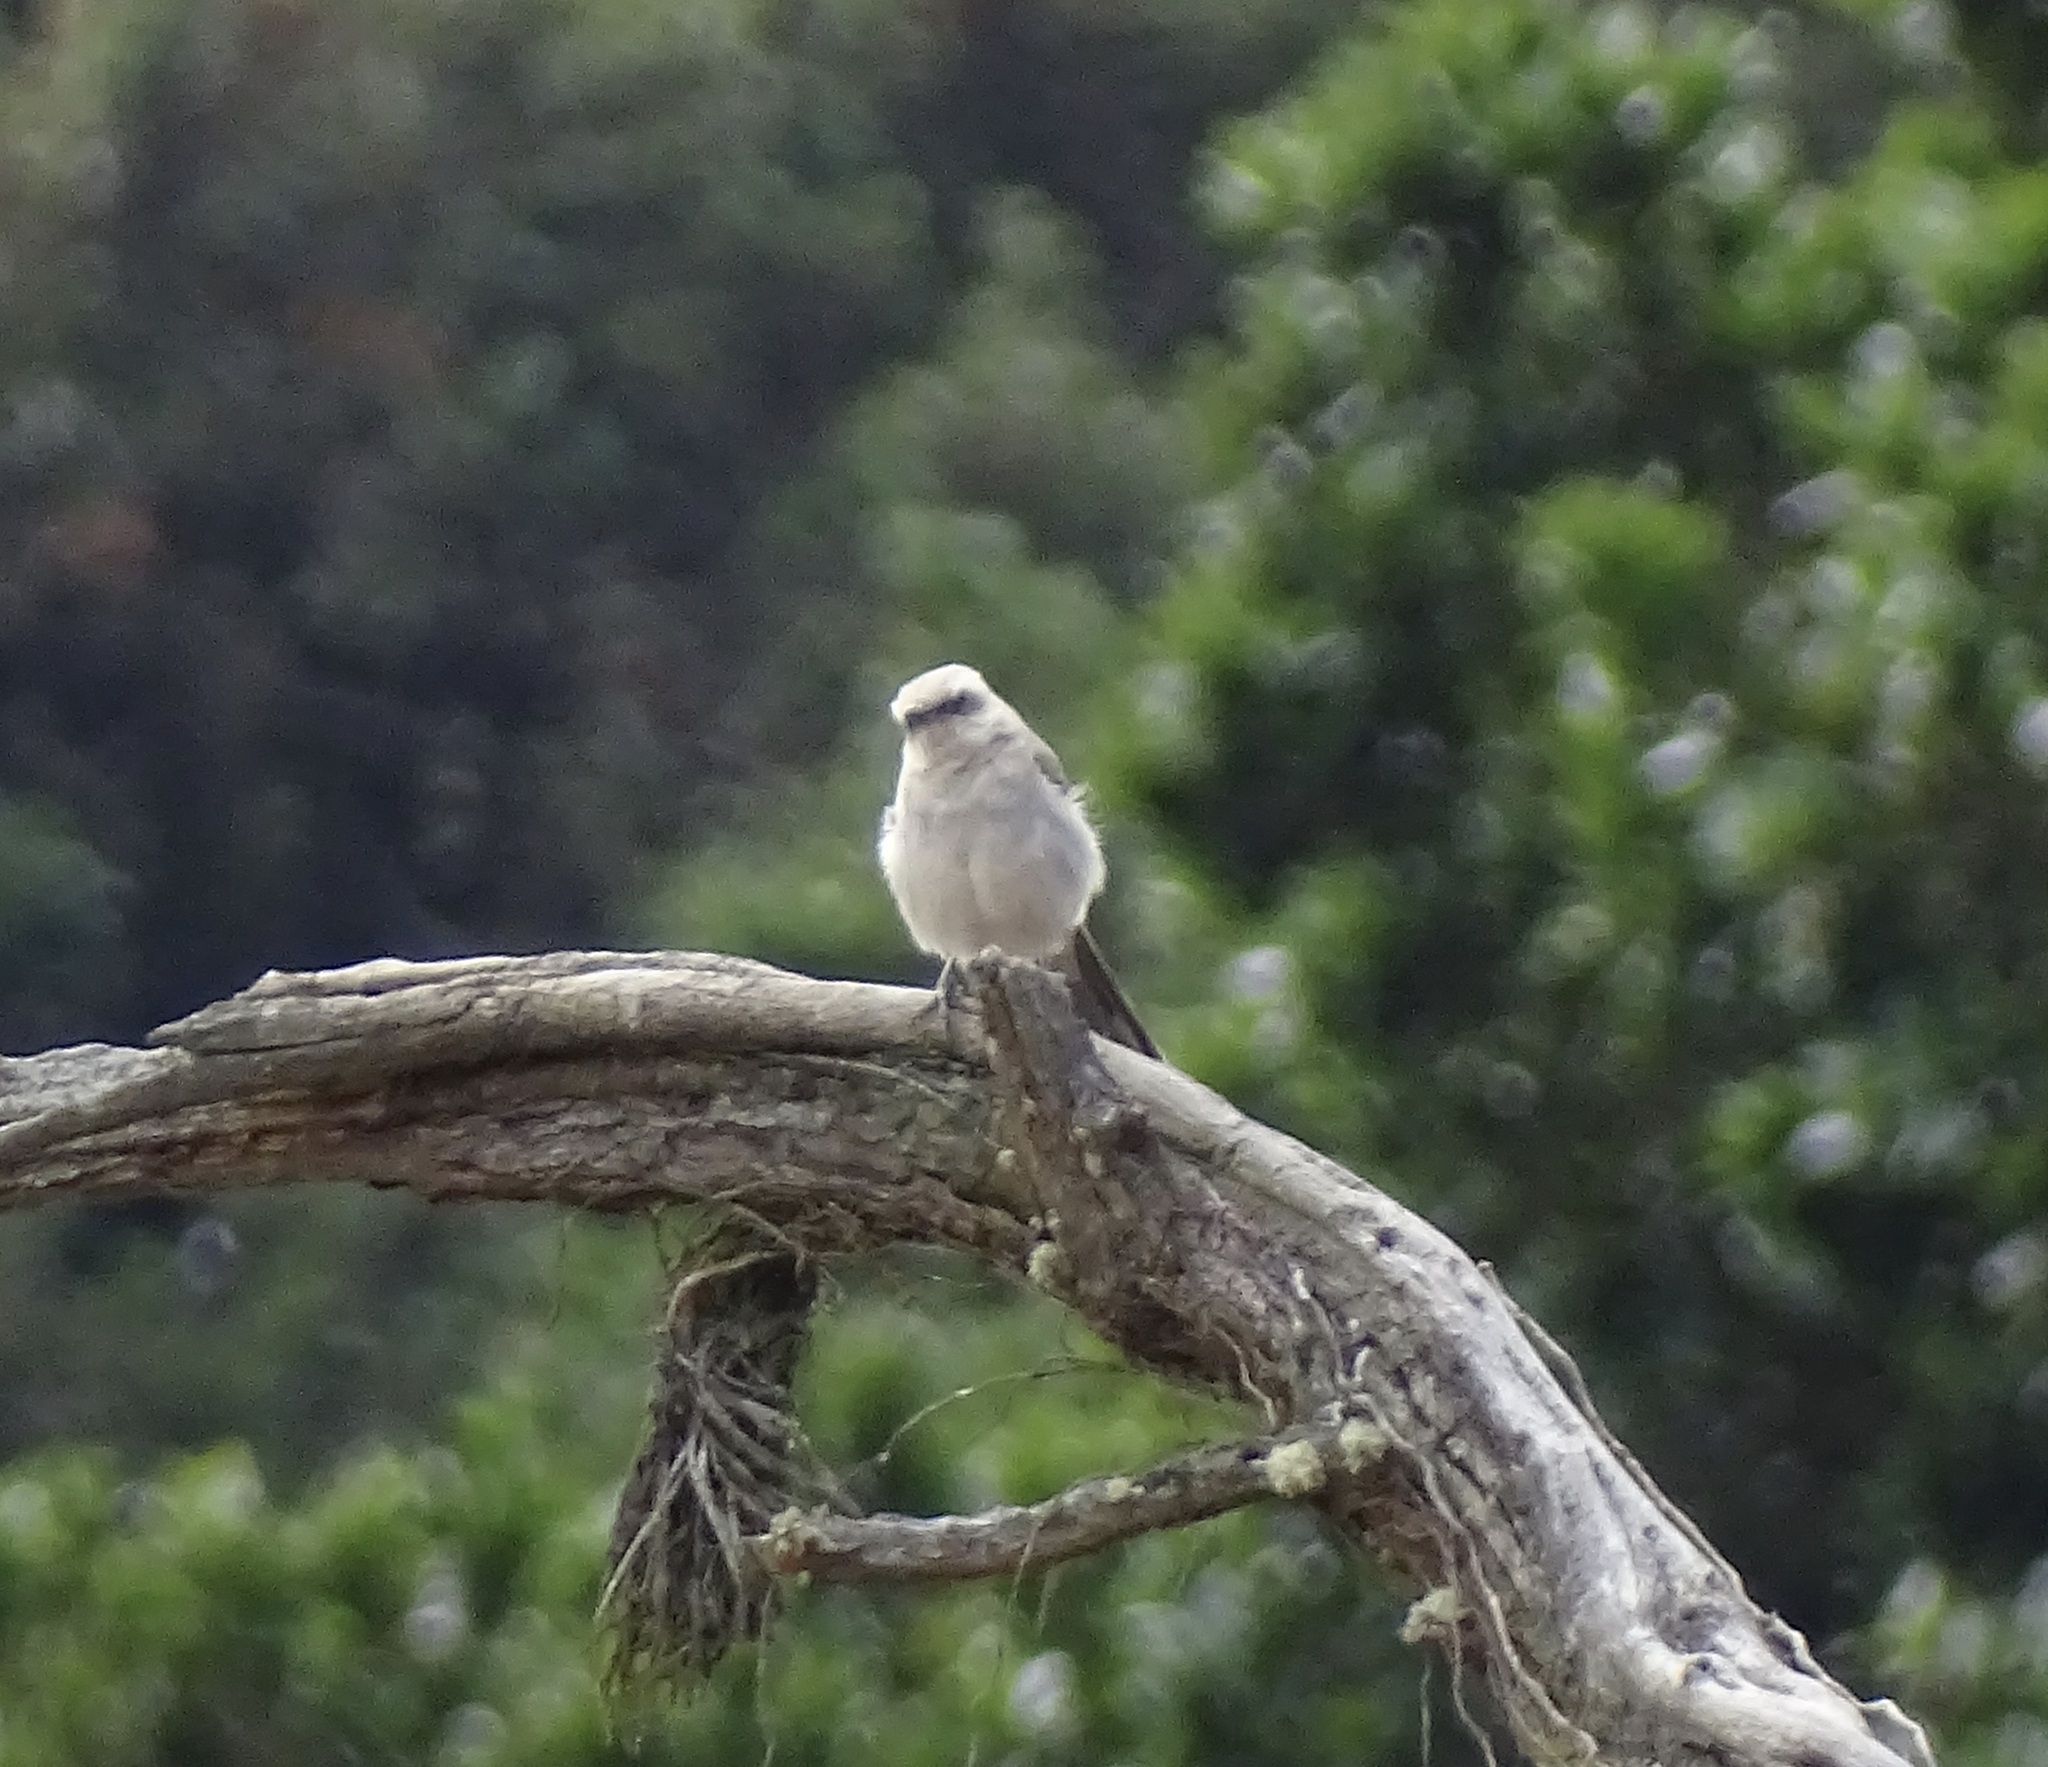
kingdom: Animalia
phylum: Chordata
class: Aves
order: Passeriformes
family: Mimidae
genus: Mimus
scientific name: Mimus gilvus
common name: Tropical mockingbird
